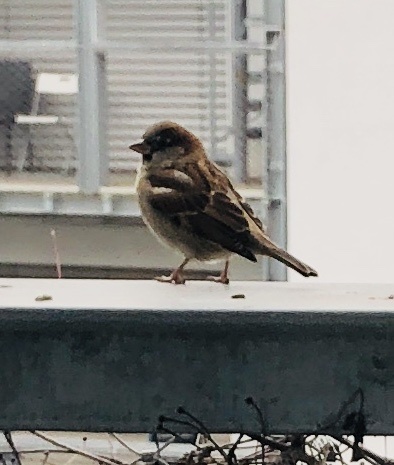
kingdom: Animalia
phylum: Chordata
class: Aves
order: Passeriformes
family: Passeridae
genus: Passer
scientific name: Passer domesticus
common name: House sparrow
